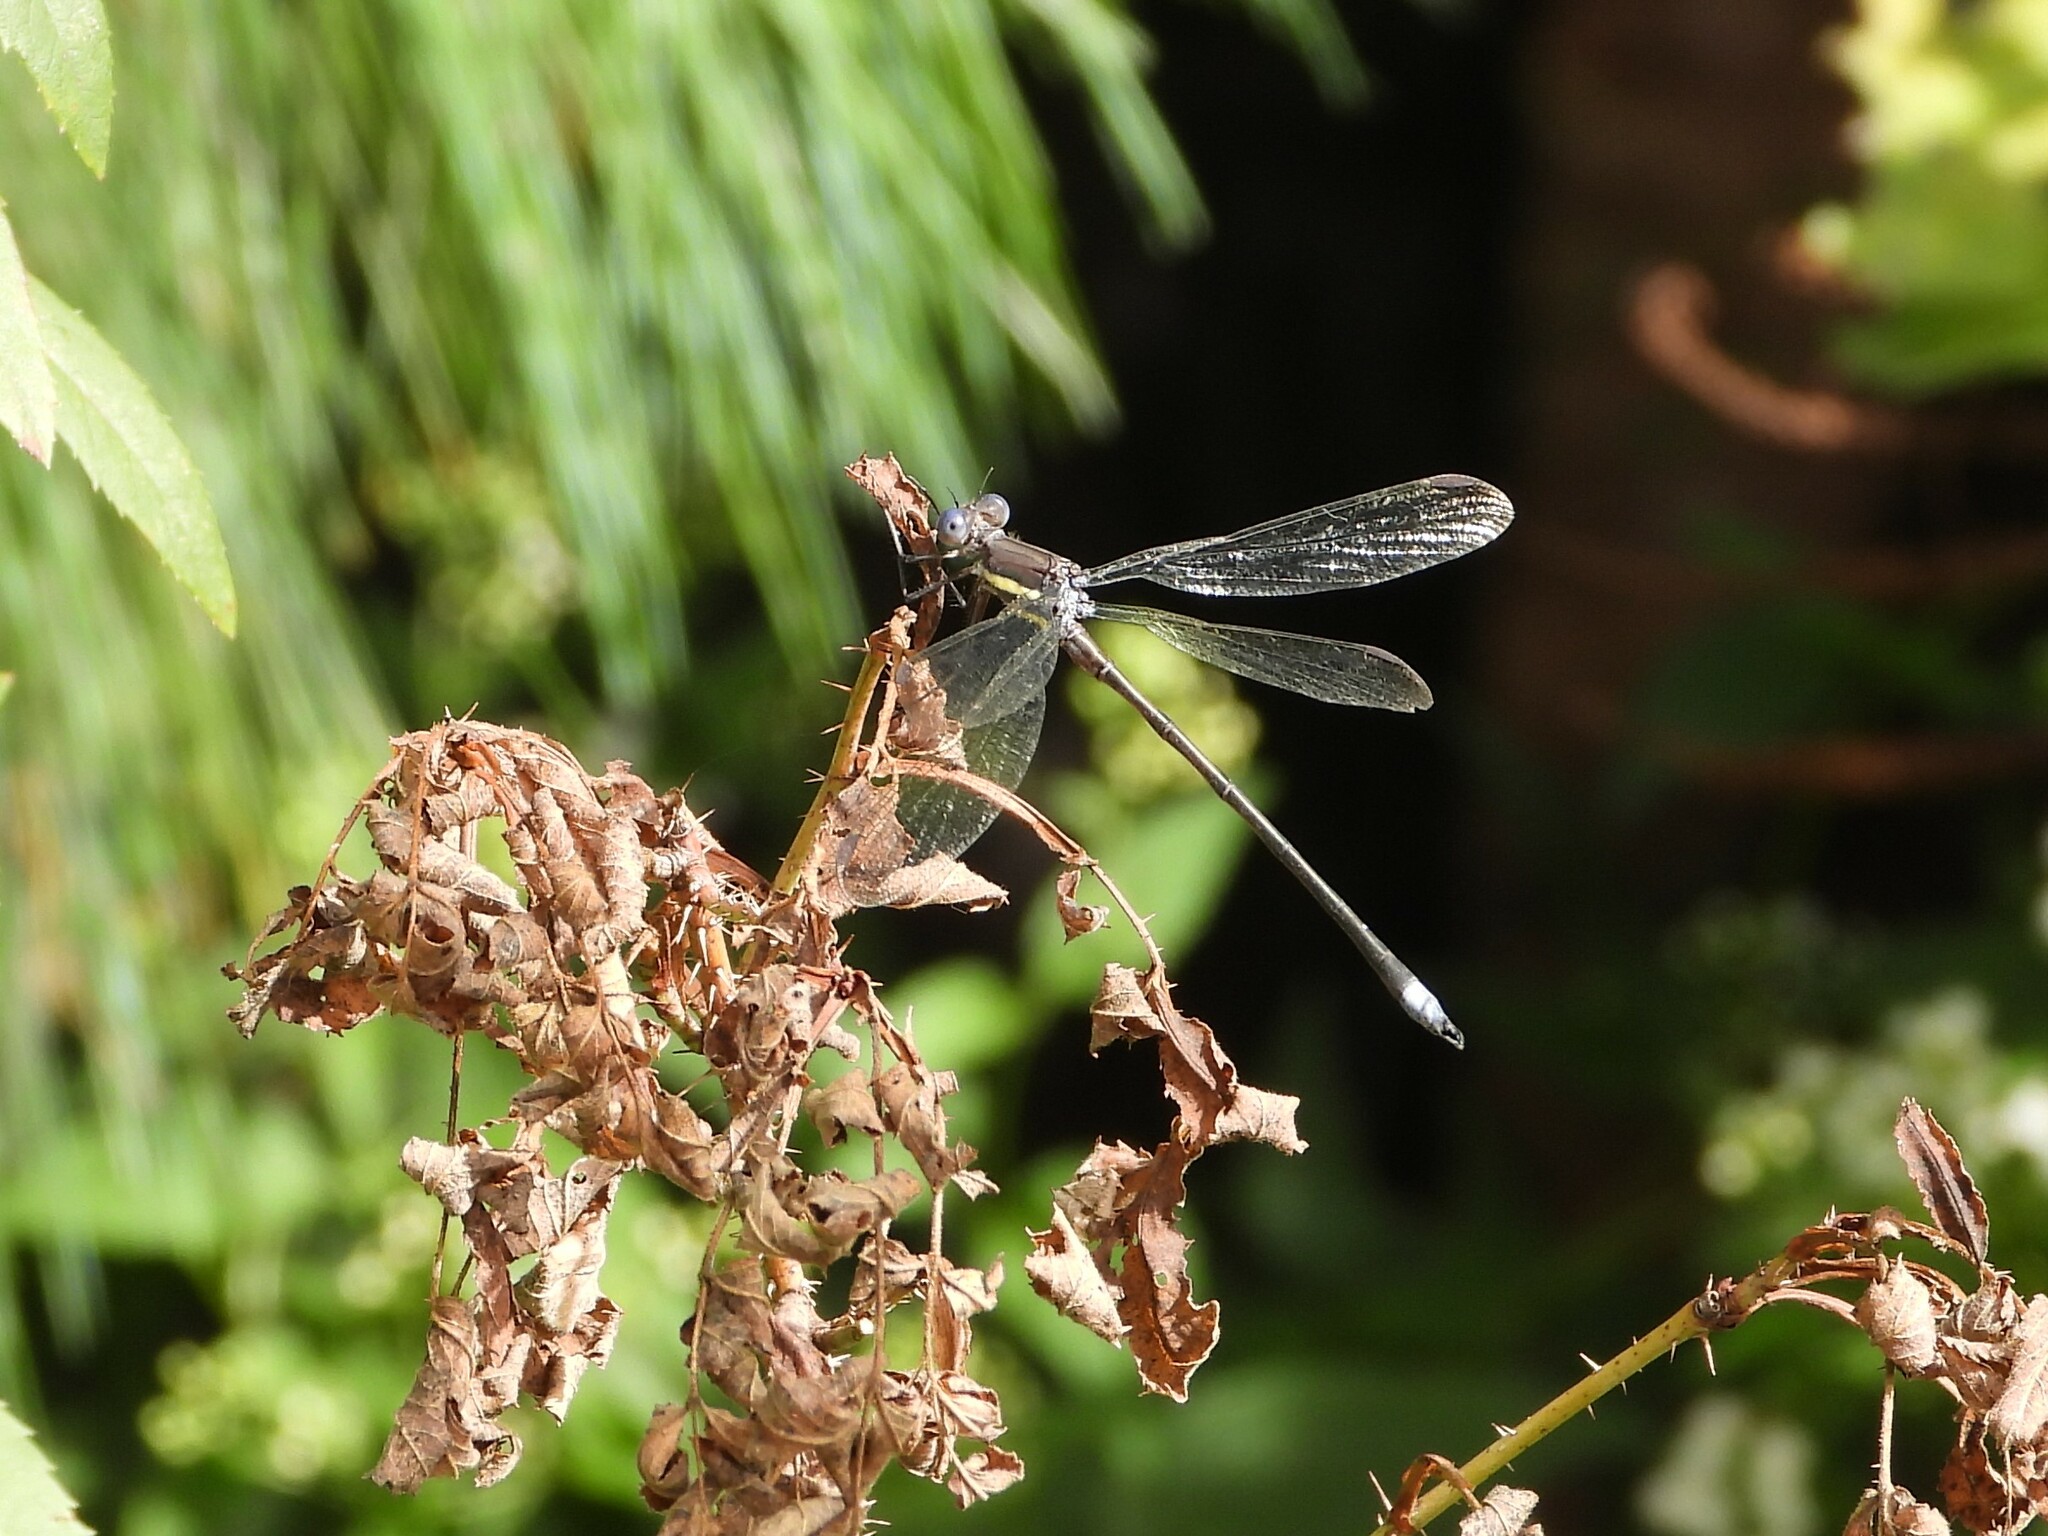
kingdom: Animalia
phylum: Arthropoda
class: Insecta
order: Odonata
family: Lestidae
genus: Archilestes
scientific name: Archilestes grandis
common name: Great spreadwing
